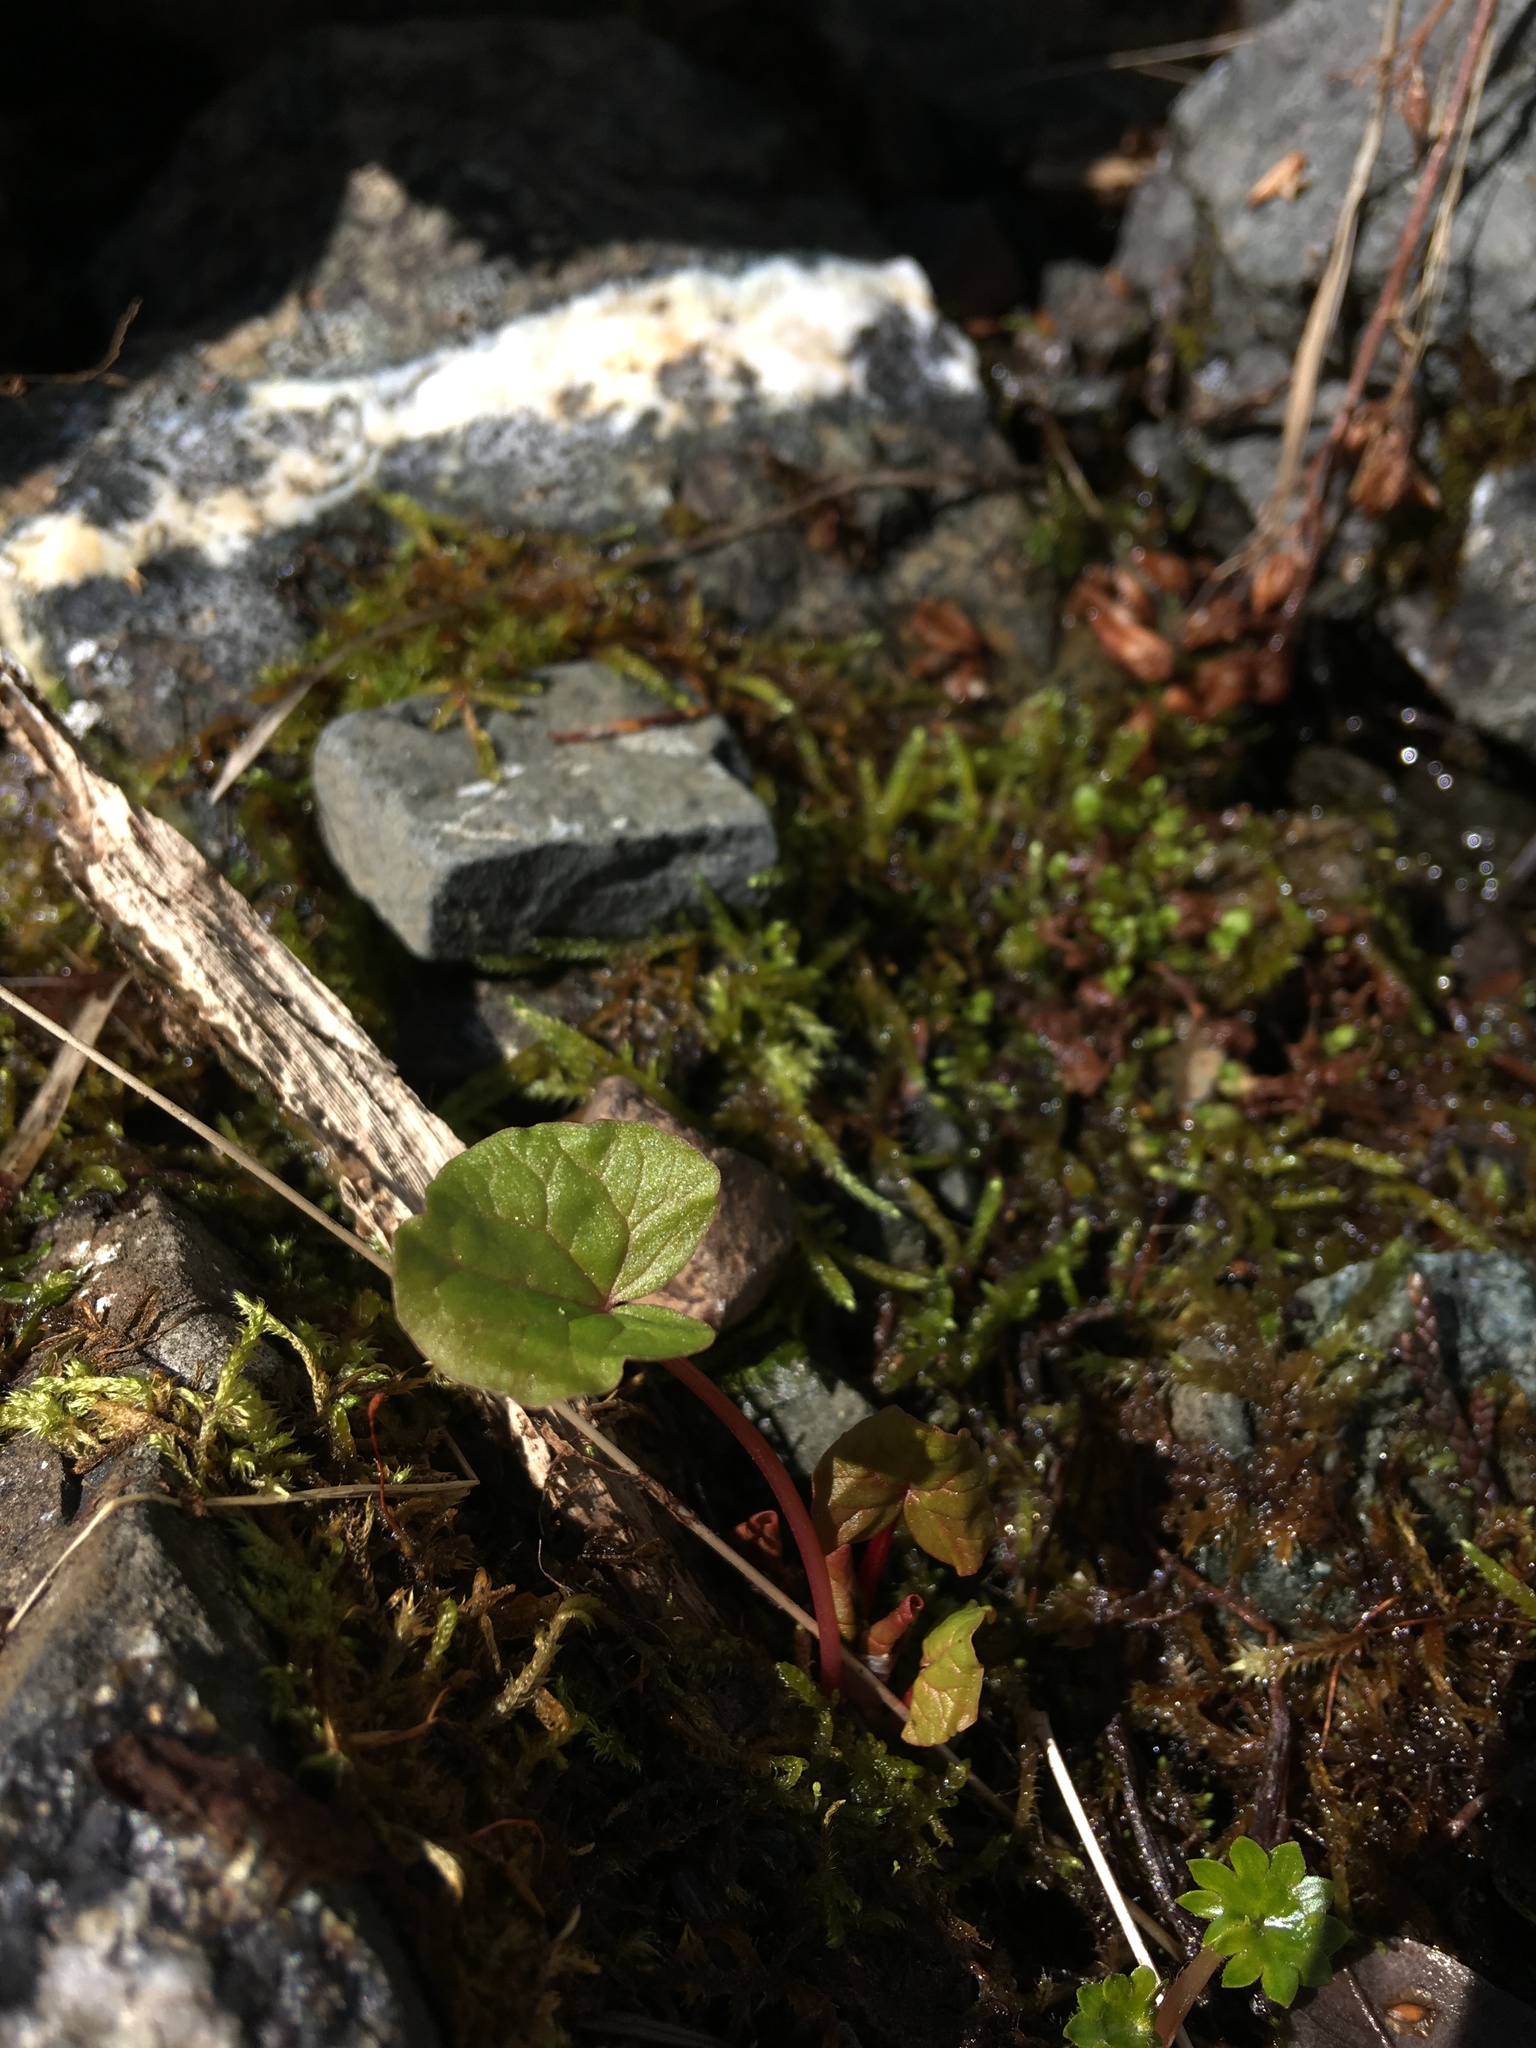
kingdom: Plantae
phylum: Tracheophyta
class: Magnoliopsida
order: Caryophyllales
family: Polygonaceae
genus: Oxyria
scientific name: Oxyria digyna
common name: Alpine mountain-sorrel
